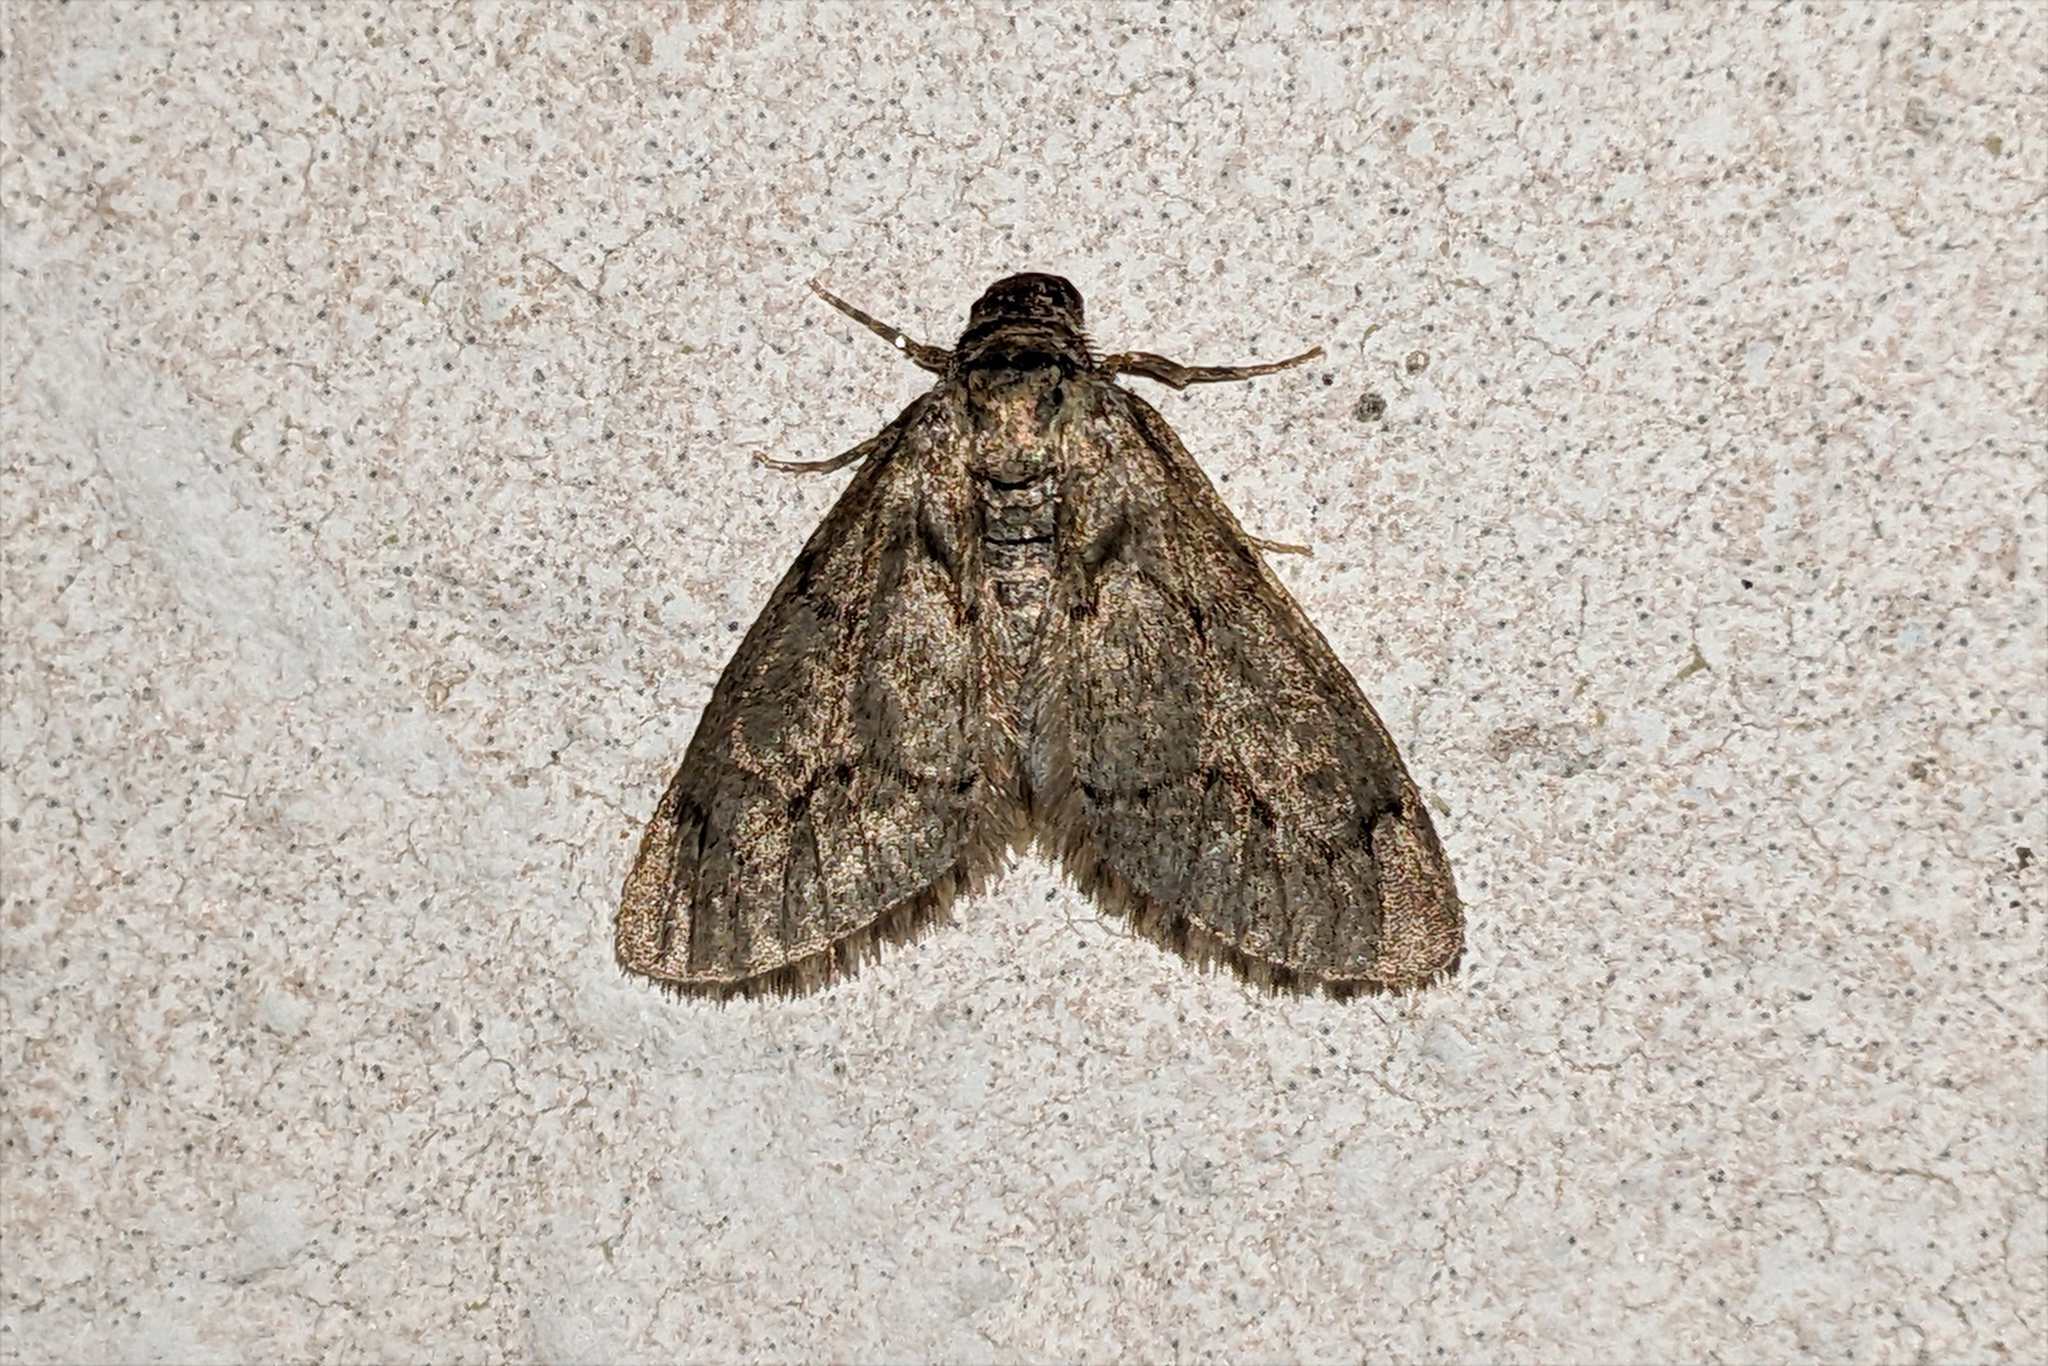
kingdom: Animalia
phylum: Arthropoda
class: Insecta
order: Lepidoptera
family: Geometridae
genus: Tephronia
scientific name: Tephronia sepiaria
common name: Dusky carpet
